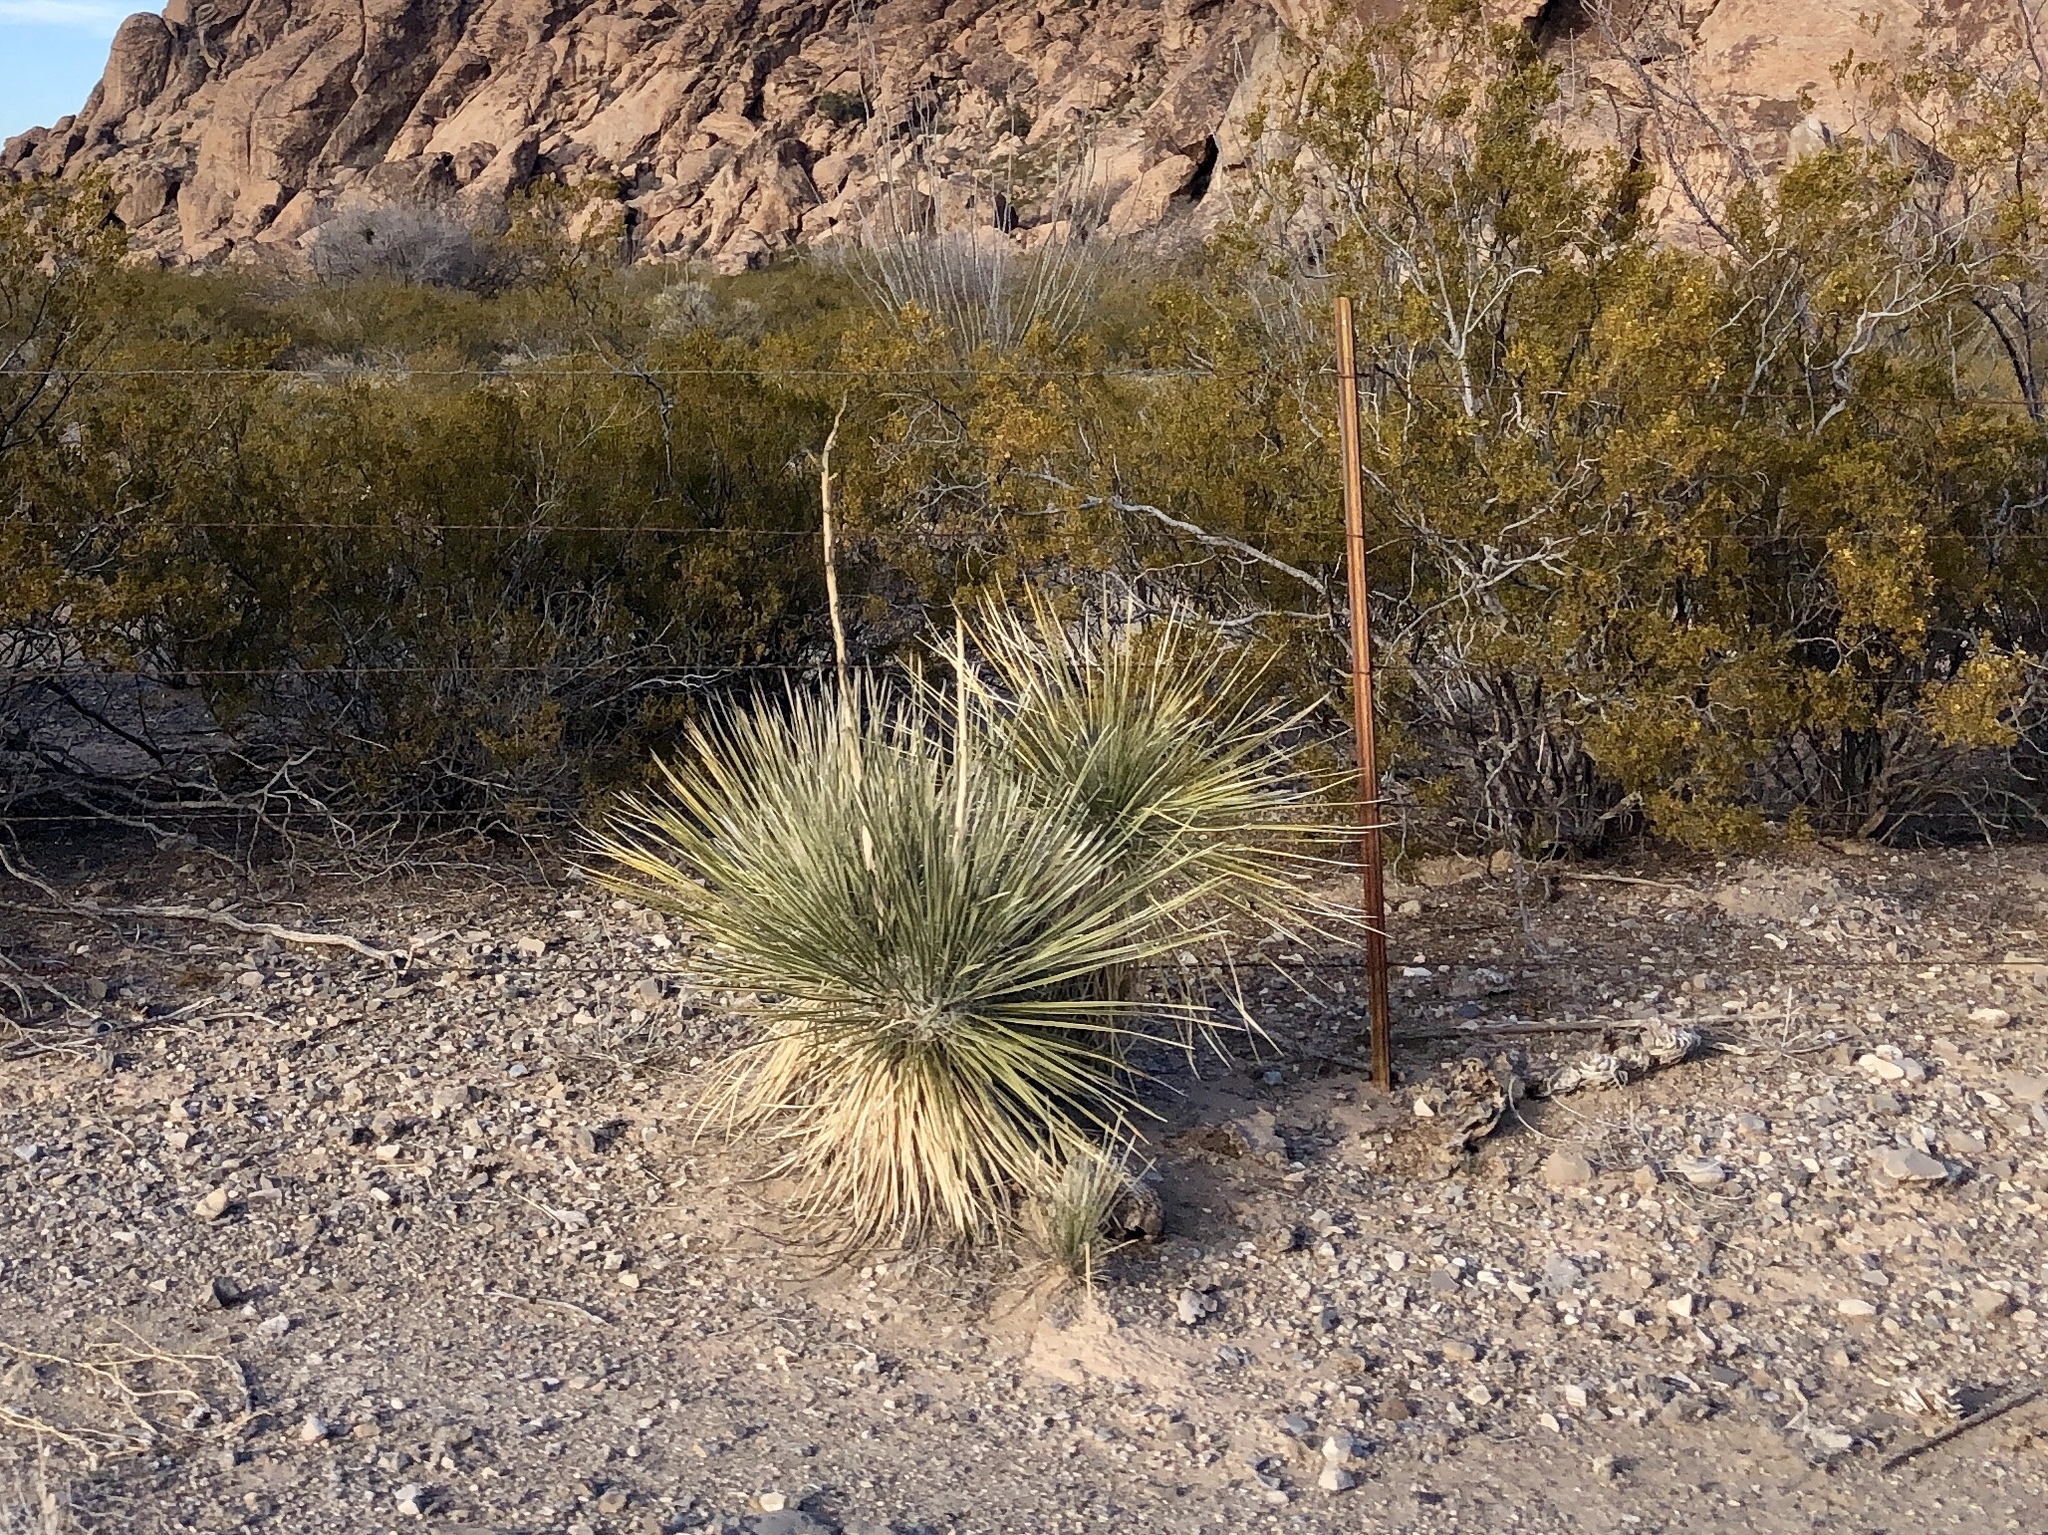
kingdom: Plantae
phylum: Tracheophyta
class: Liliopsida
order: Asparagales
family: Asparagaceae
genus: Yucca
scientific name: Yucca elata
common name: Palmella
